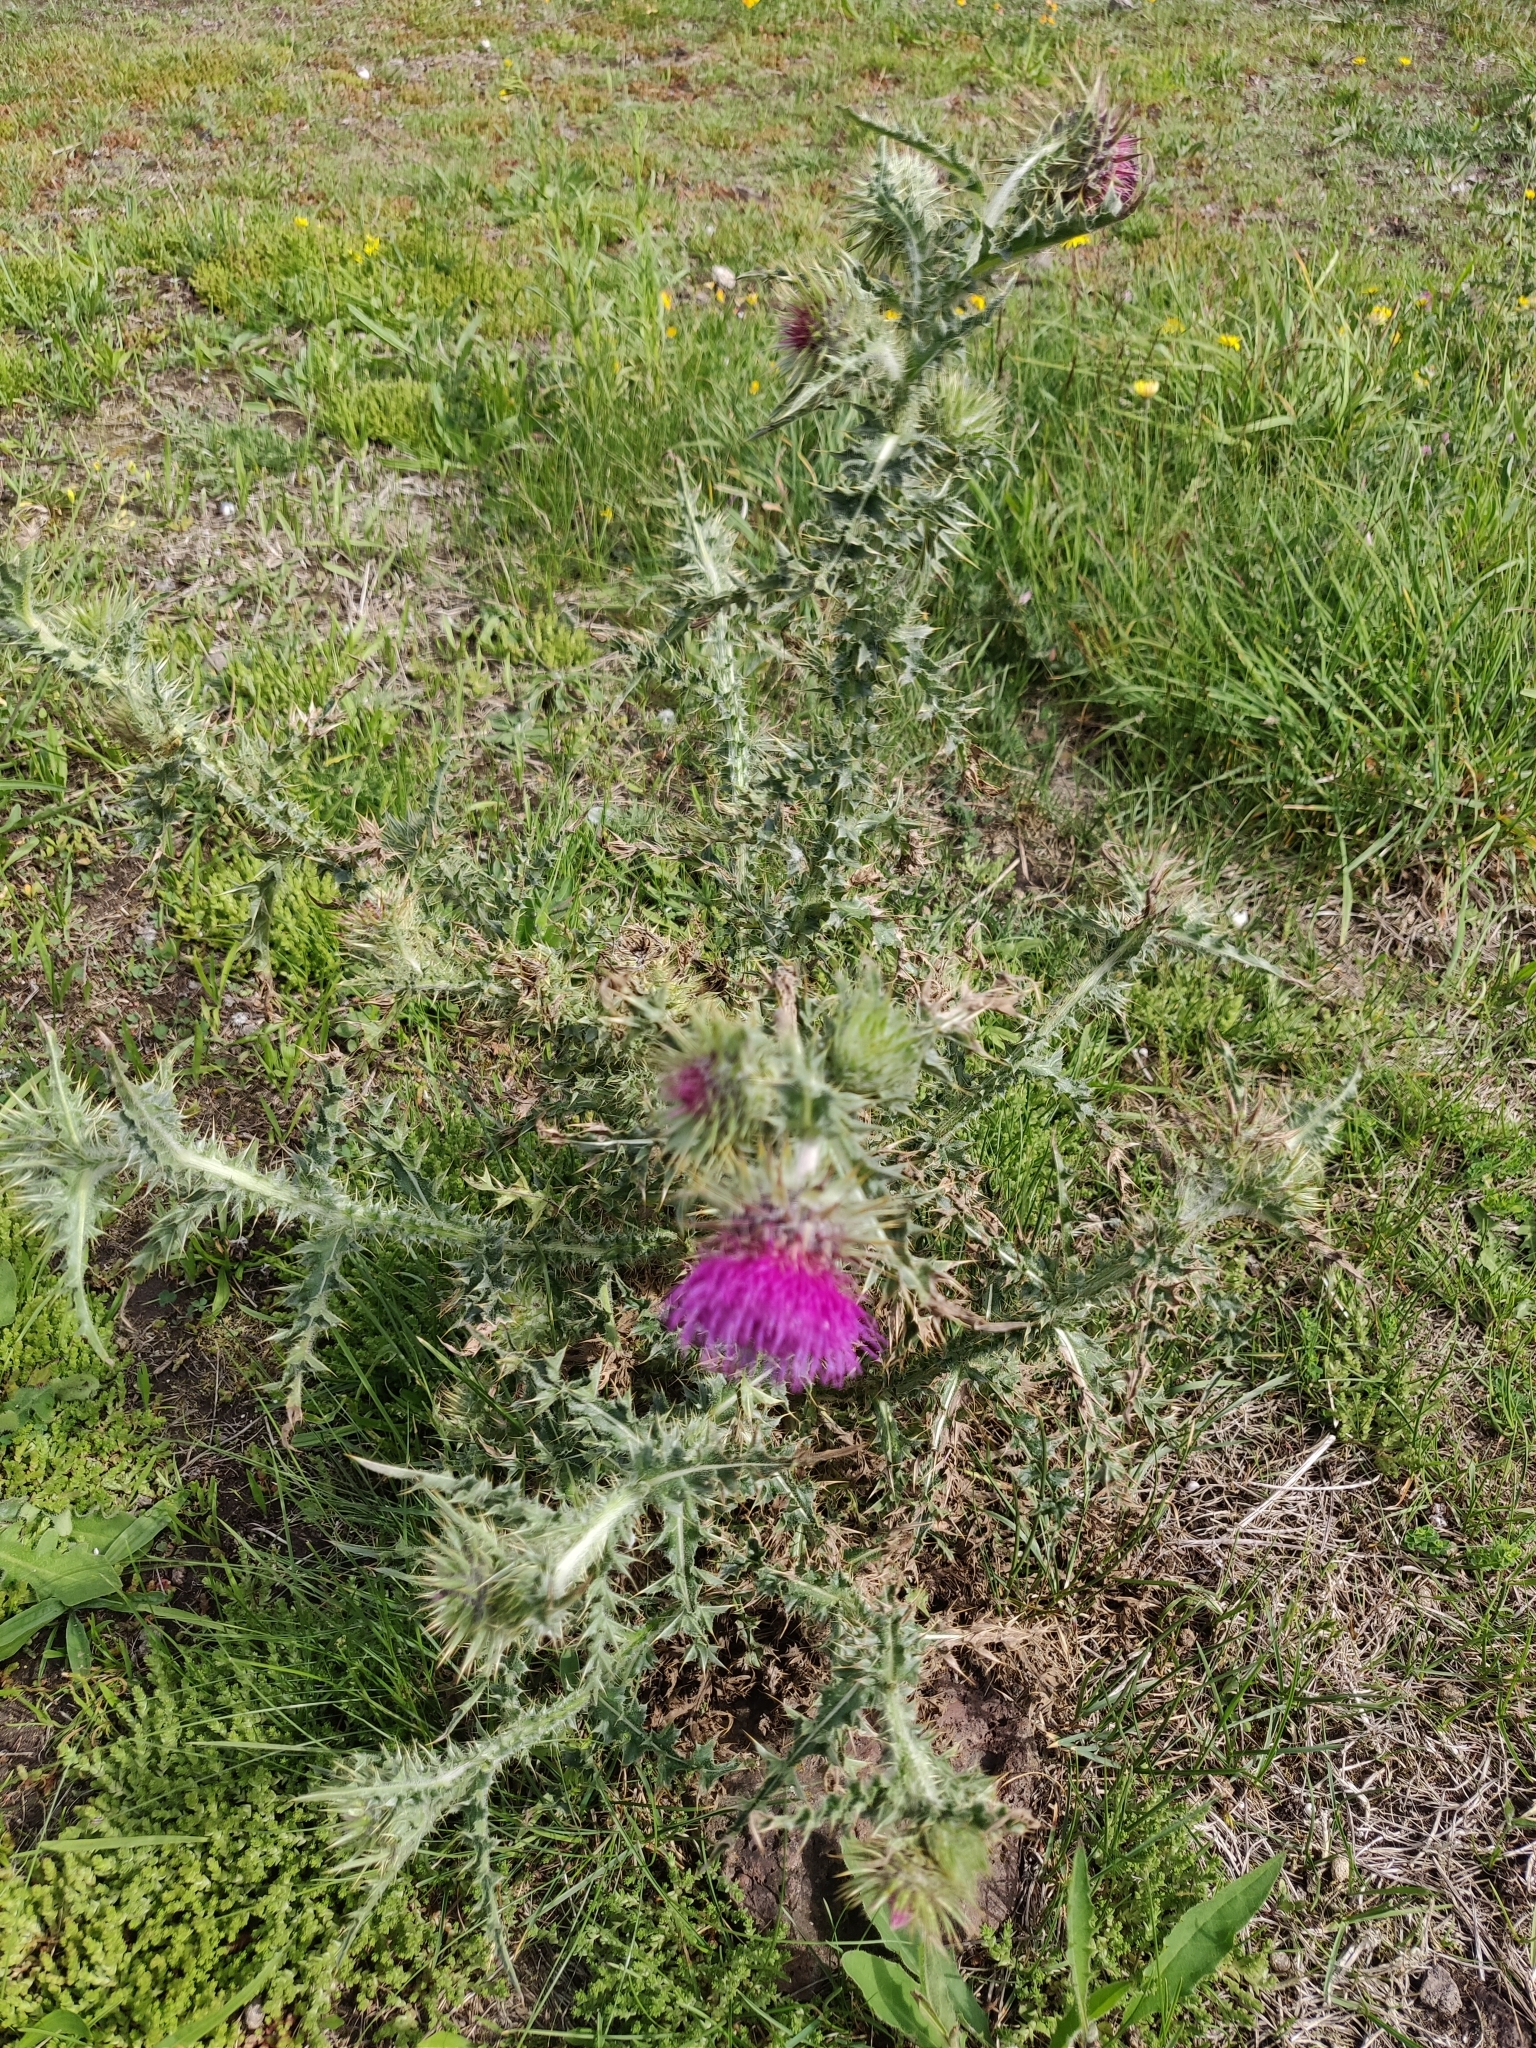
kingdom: Plantae
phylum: Tracheophyta
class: Magnoliopsida
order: Asterales
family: Asteraceae
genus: Carduus
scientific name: Carduus nutans
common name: Musk thistle
